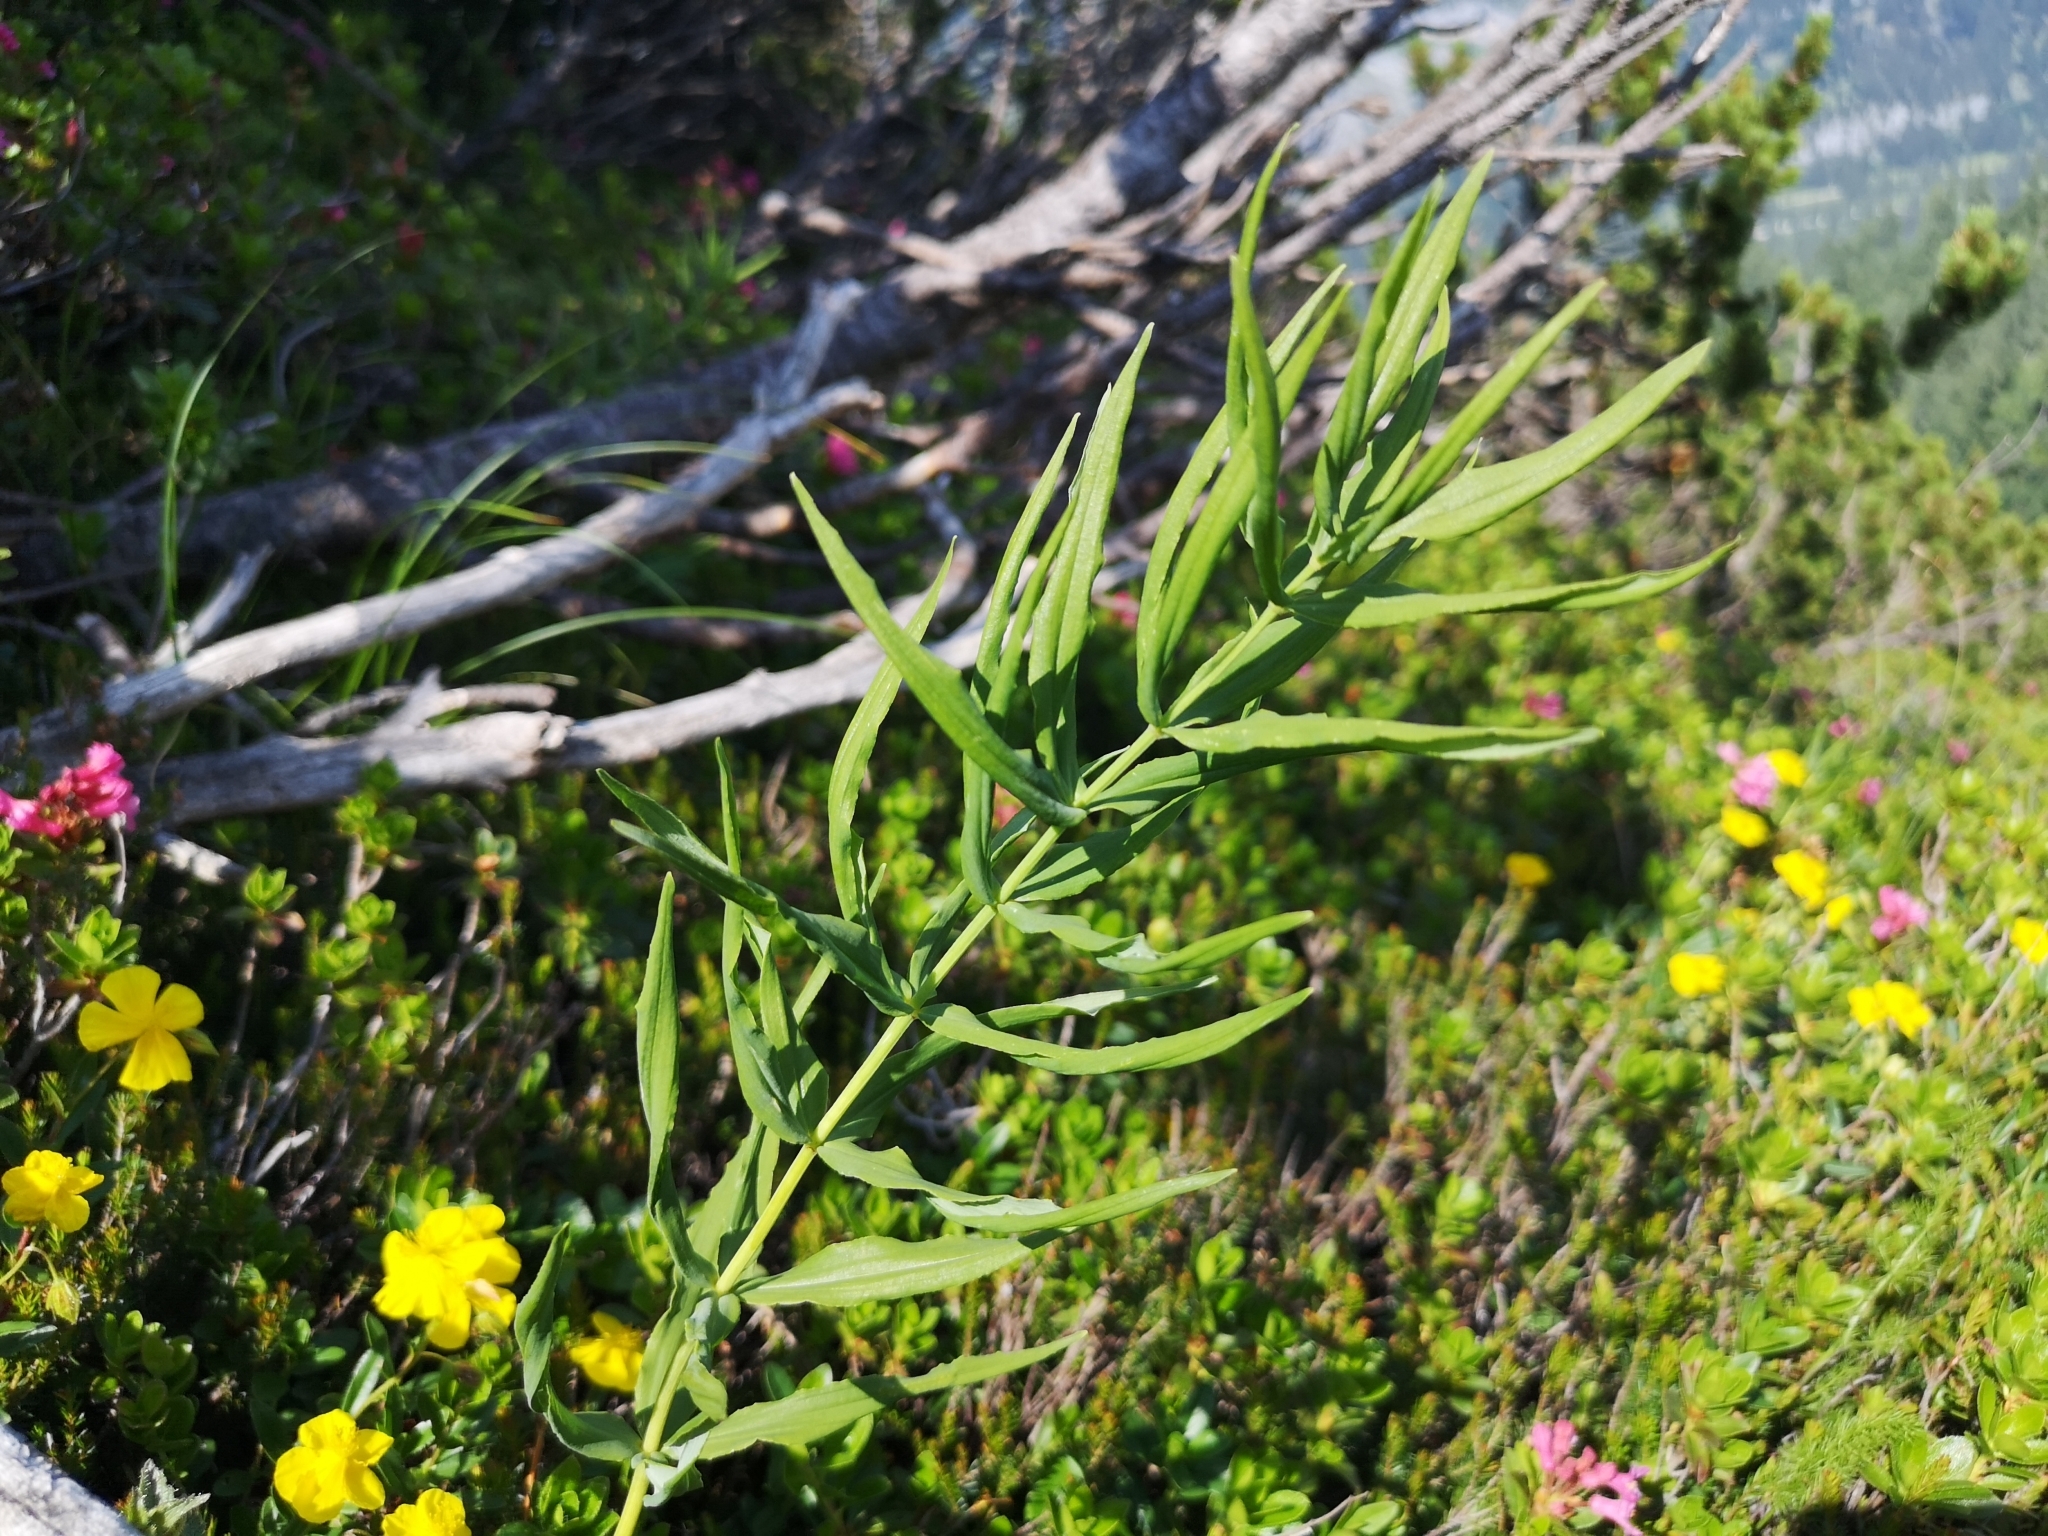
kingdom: Plantae
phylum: Tracheophyta
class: Liliopsida
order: Asparagales
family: Asparagaceae
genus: Polygonatum
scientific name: Polygonatum verticillatum
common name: Whorled solomon's-seal
